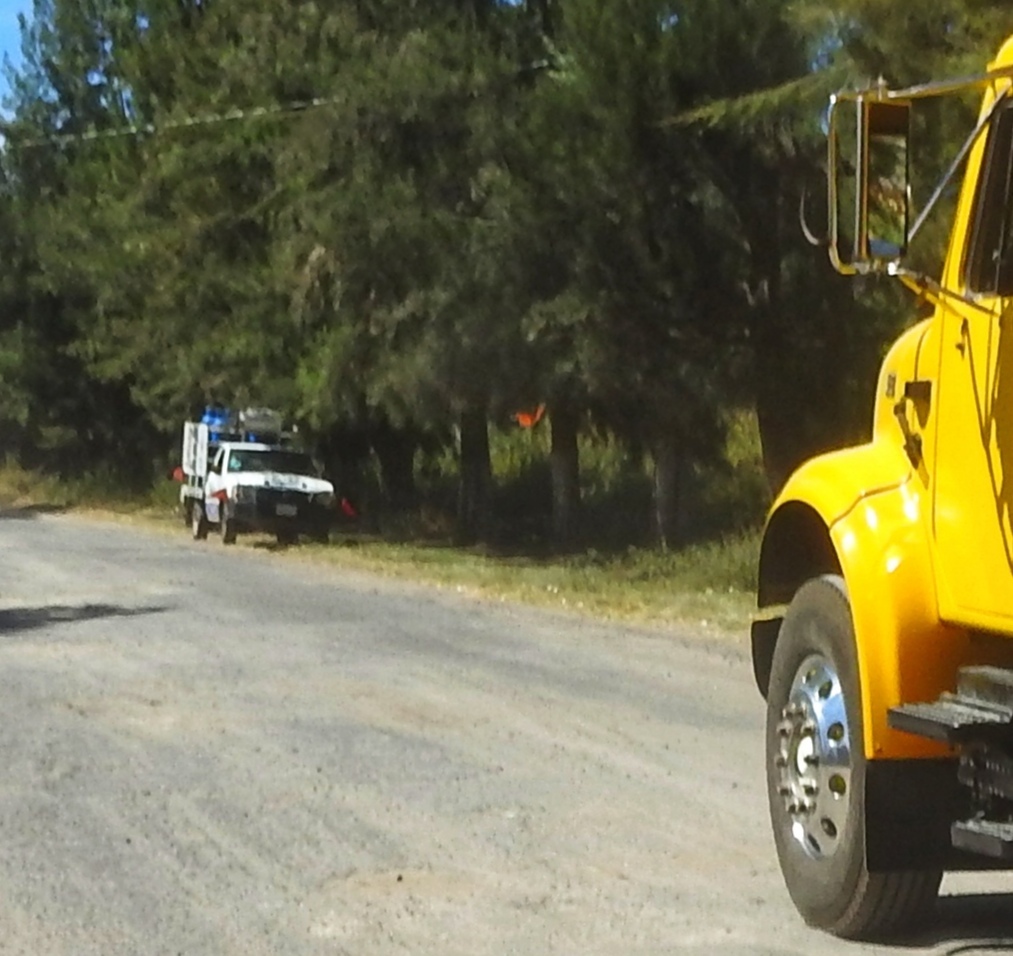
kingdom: Animalia
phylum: Arthropoda
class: Insecta
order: Lepidoptera
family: Nymphalidae
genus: Danaus
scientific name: Danaus plexippus
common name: Monarch
